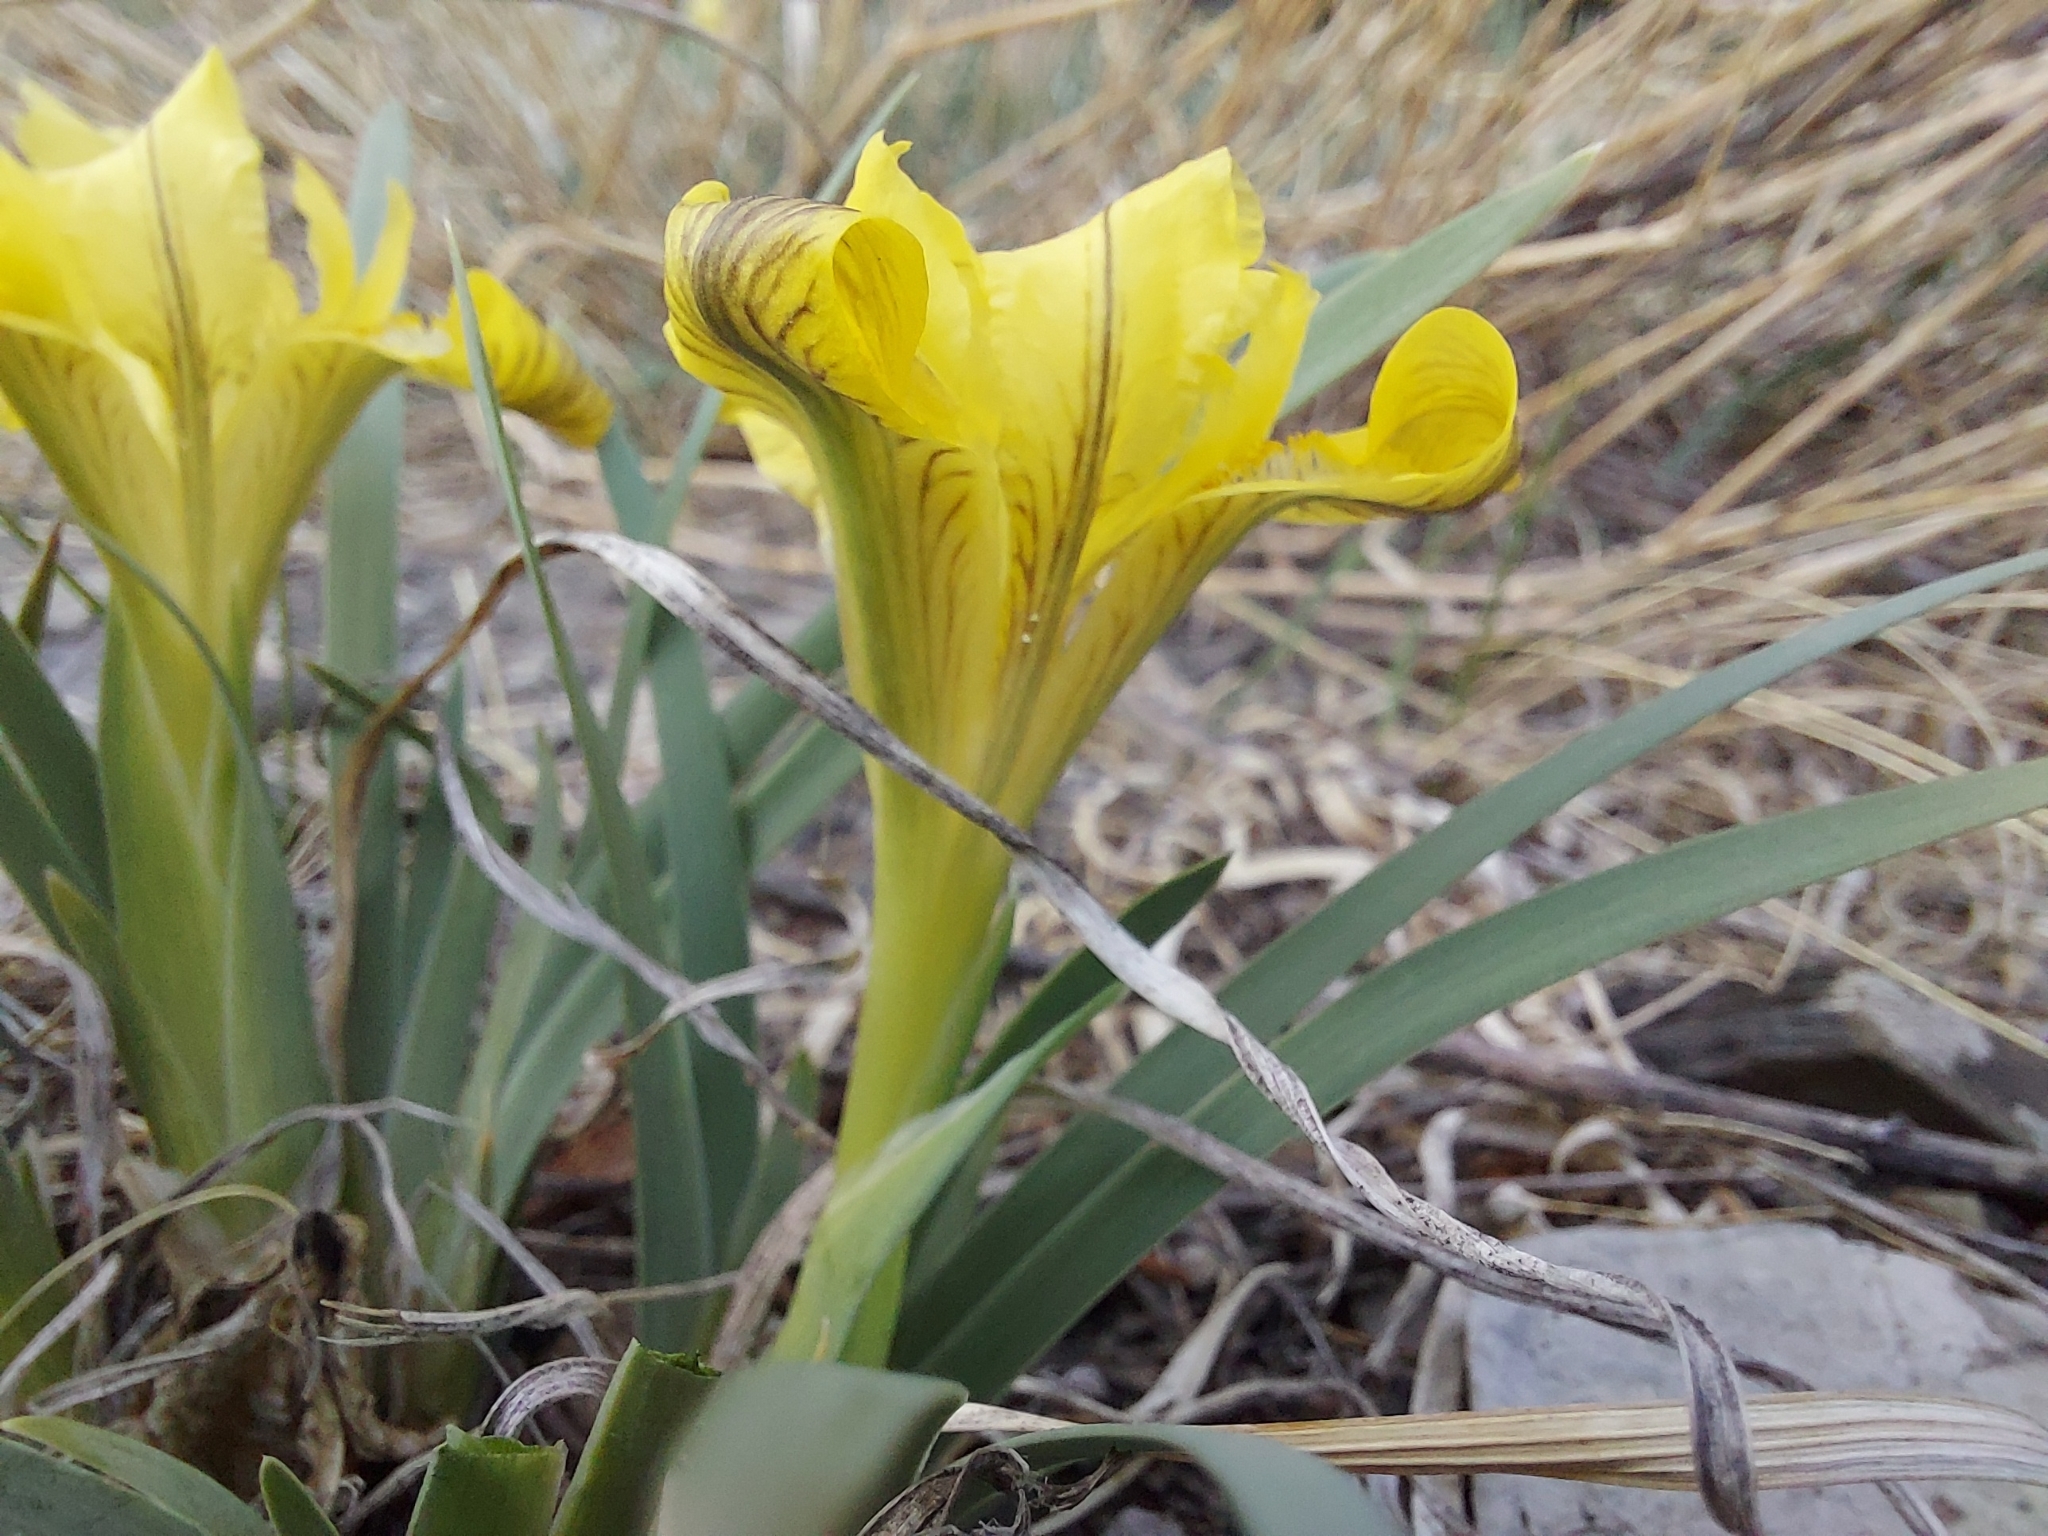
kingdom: Plantae
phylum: Tracheophyta
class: Liliopsida
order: Asparagales
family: Iridaceae
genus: Iris
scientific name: Iris potaninii
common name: Curl-sheath iris
